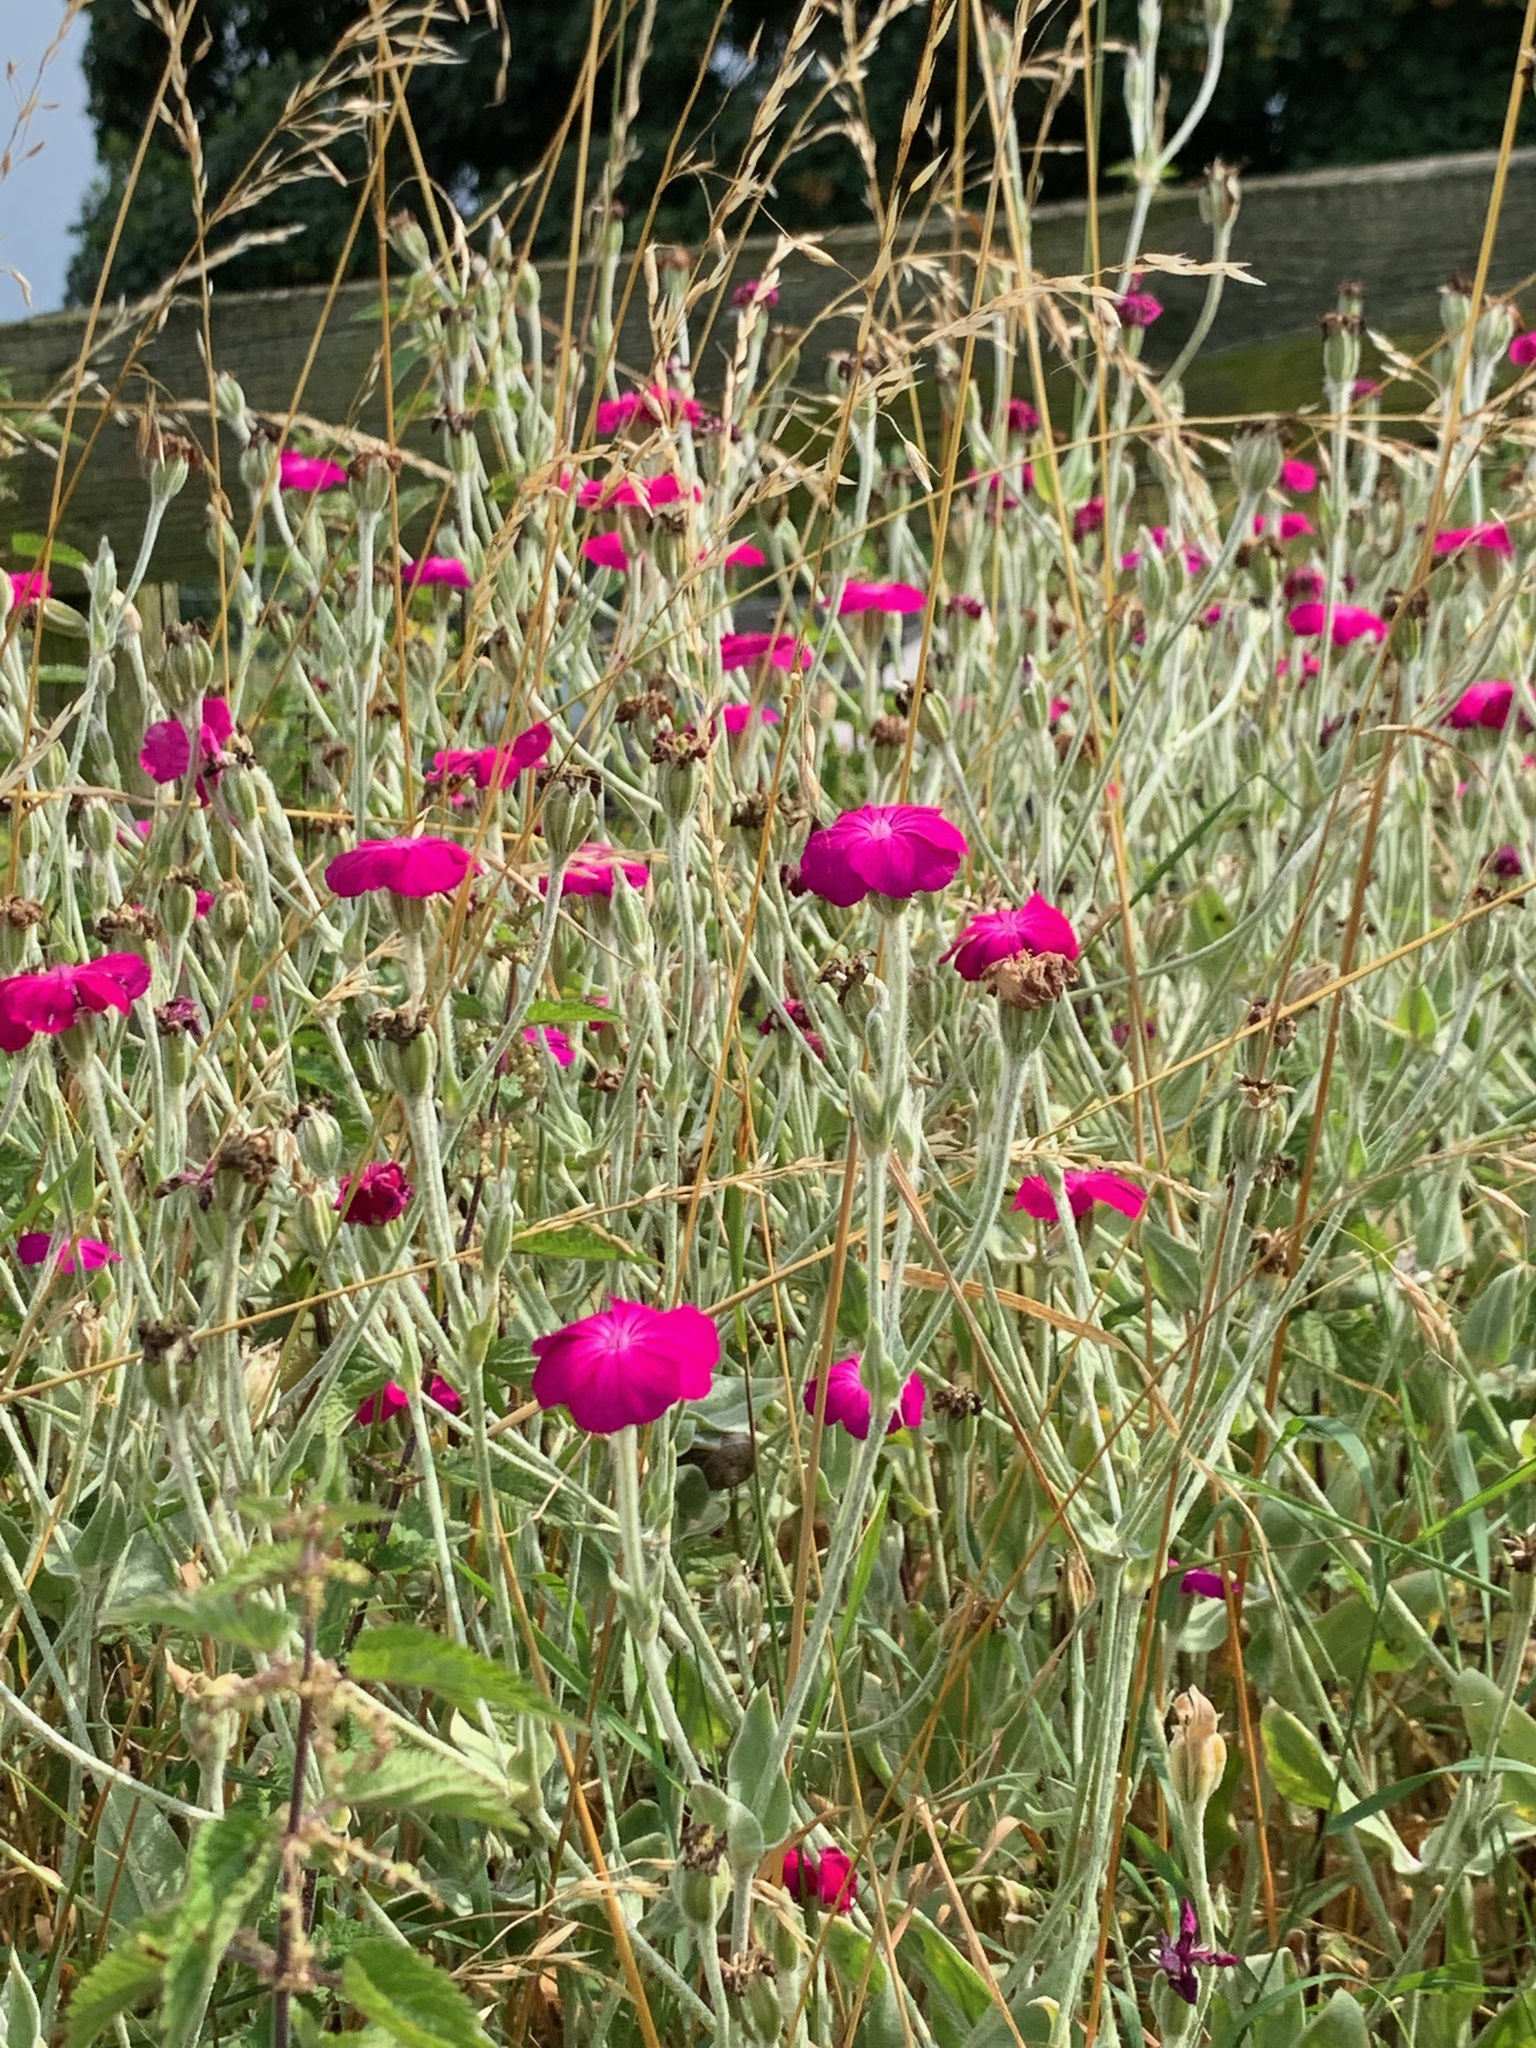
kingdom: Plantae
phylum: Tracheophyta
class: Magnoliopsida
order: Caryophyllales
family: Caryophyllaceae
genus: Silene
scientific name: Silene coronaria
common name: Rose campion
